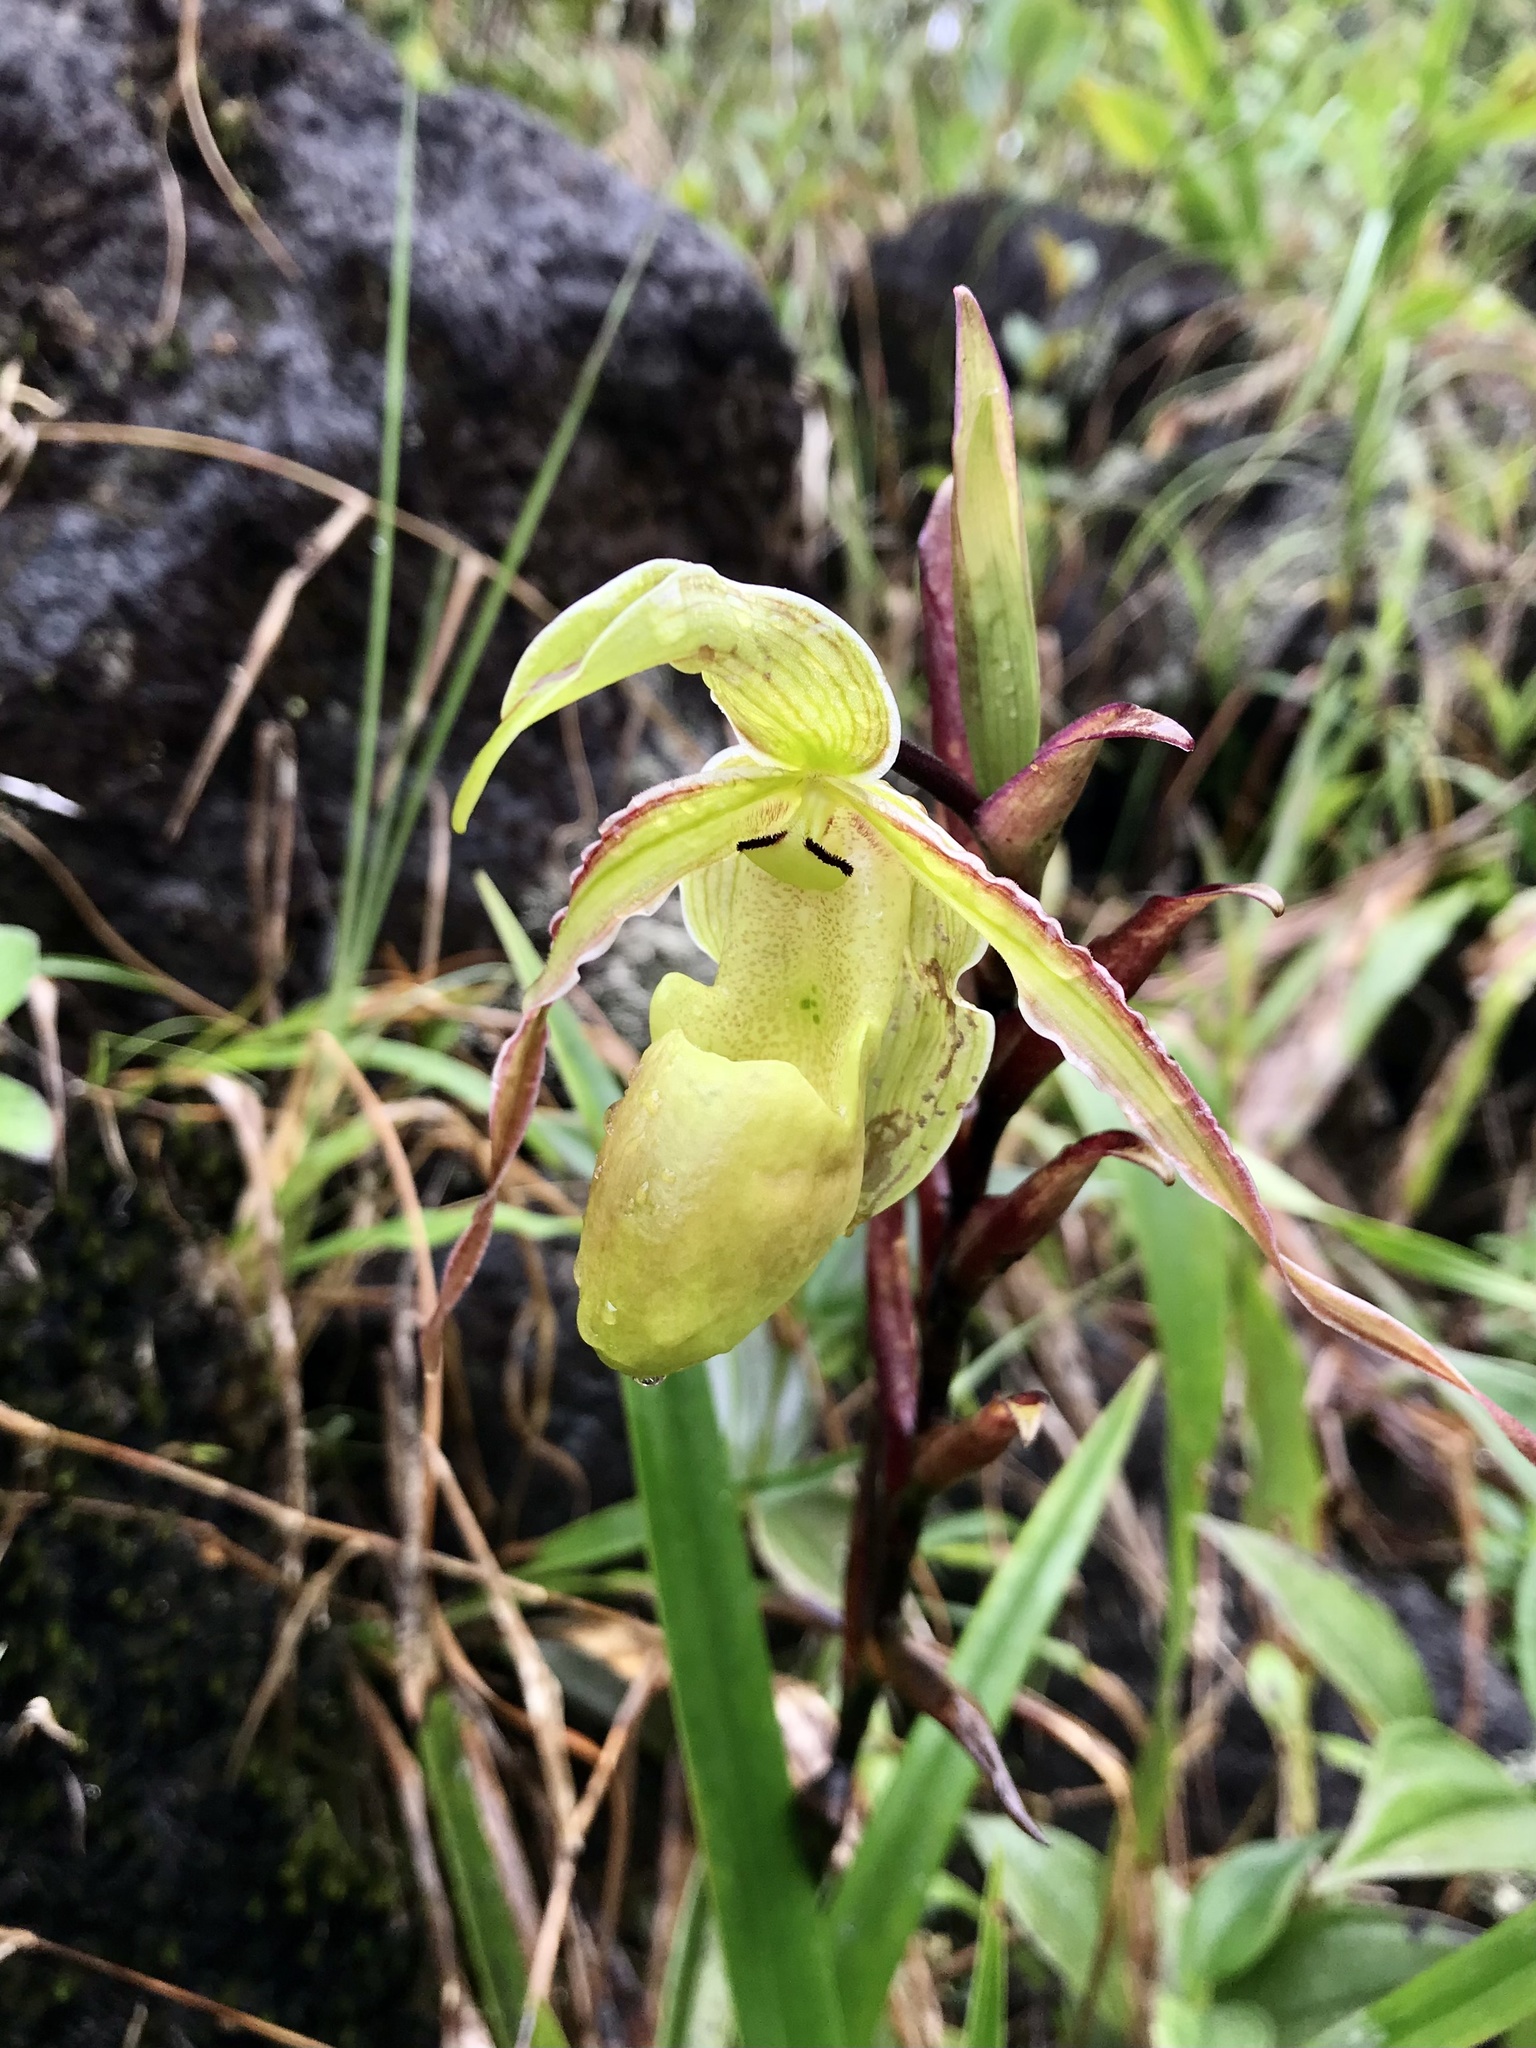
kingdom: Plantae
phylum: Tracheophyta
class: Liliopsida
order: Asparagales
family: Orchidaceae
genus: Phragmipedium
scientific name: Phragmipedium longifolium
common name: Long-leaf phragmipedium
